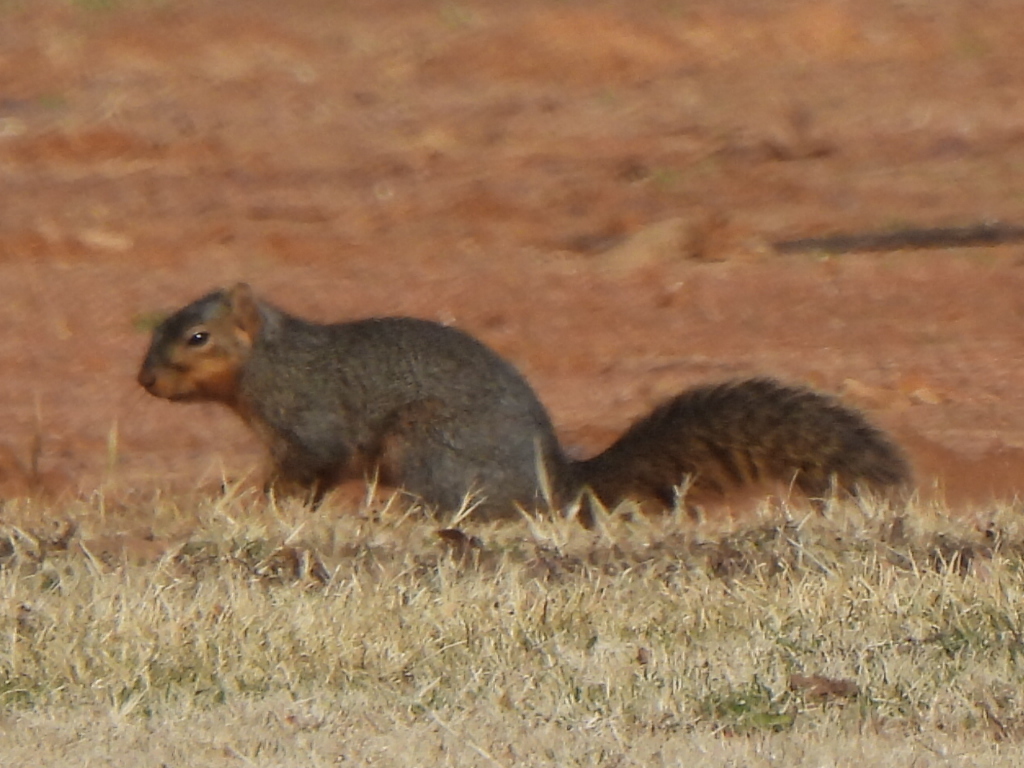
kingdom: Animalia
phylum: Chordata
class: Mammalia
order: Rodentia
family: Sciuridae
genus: Sciurus
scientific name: Sciurus niger
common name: Fox squirrel
